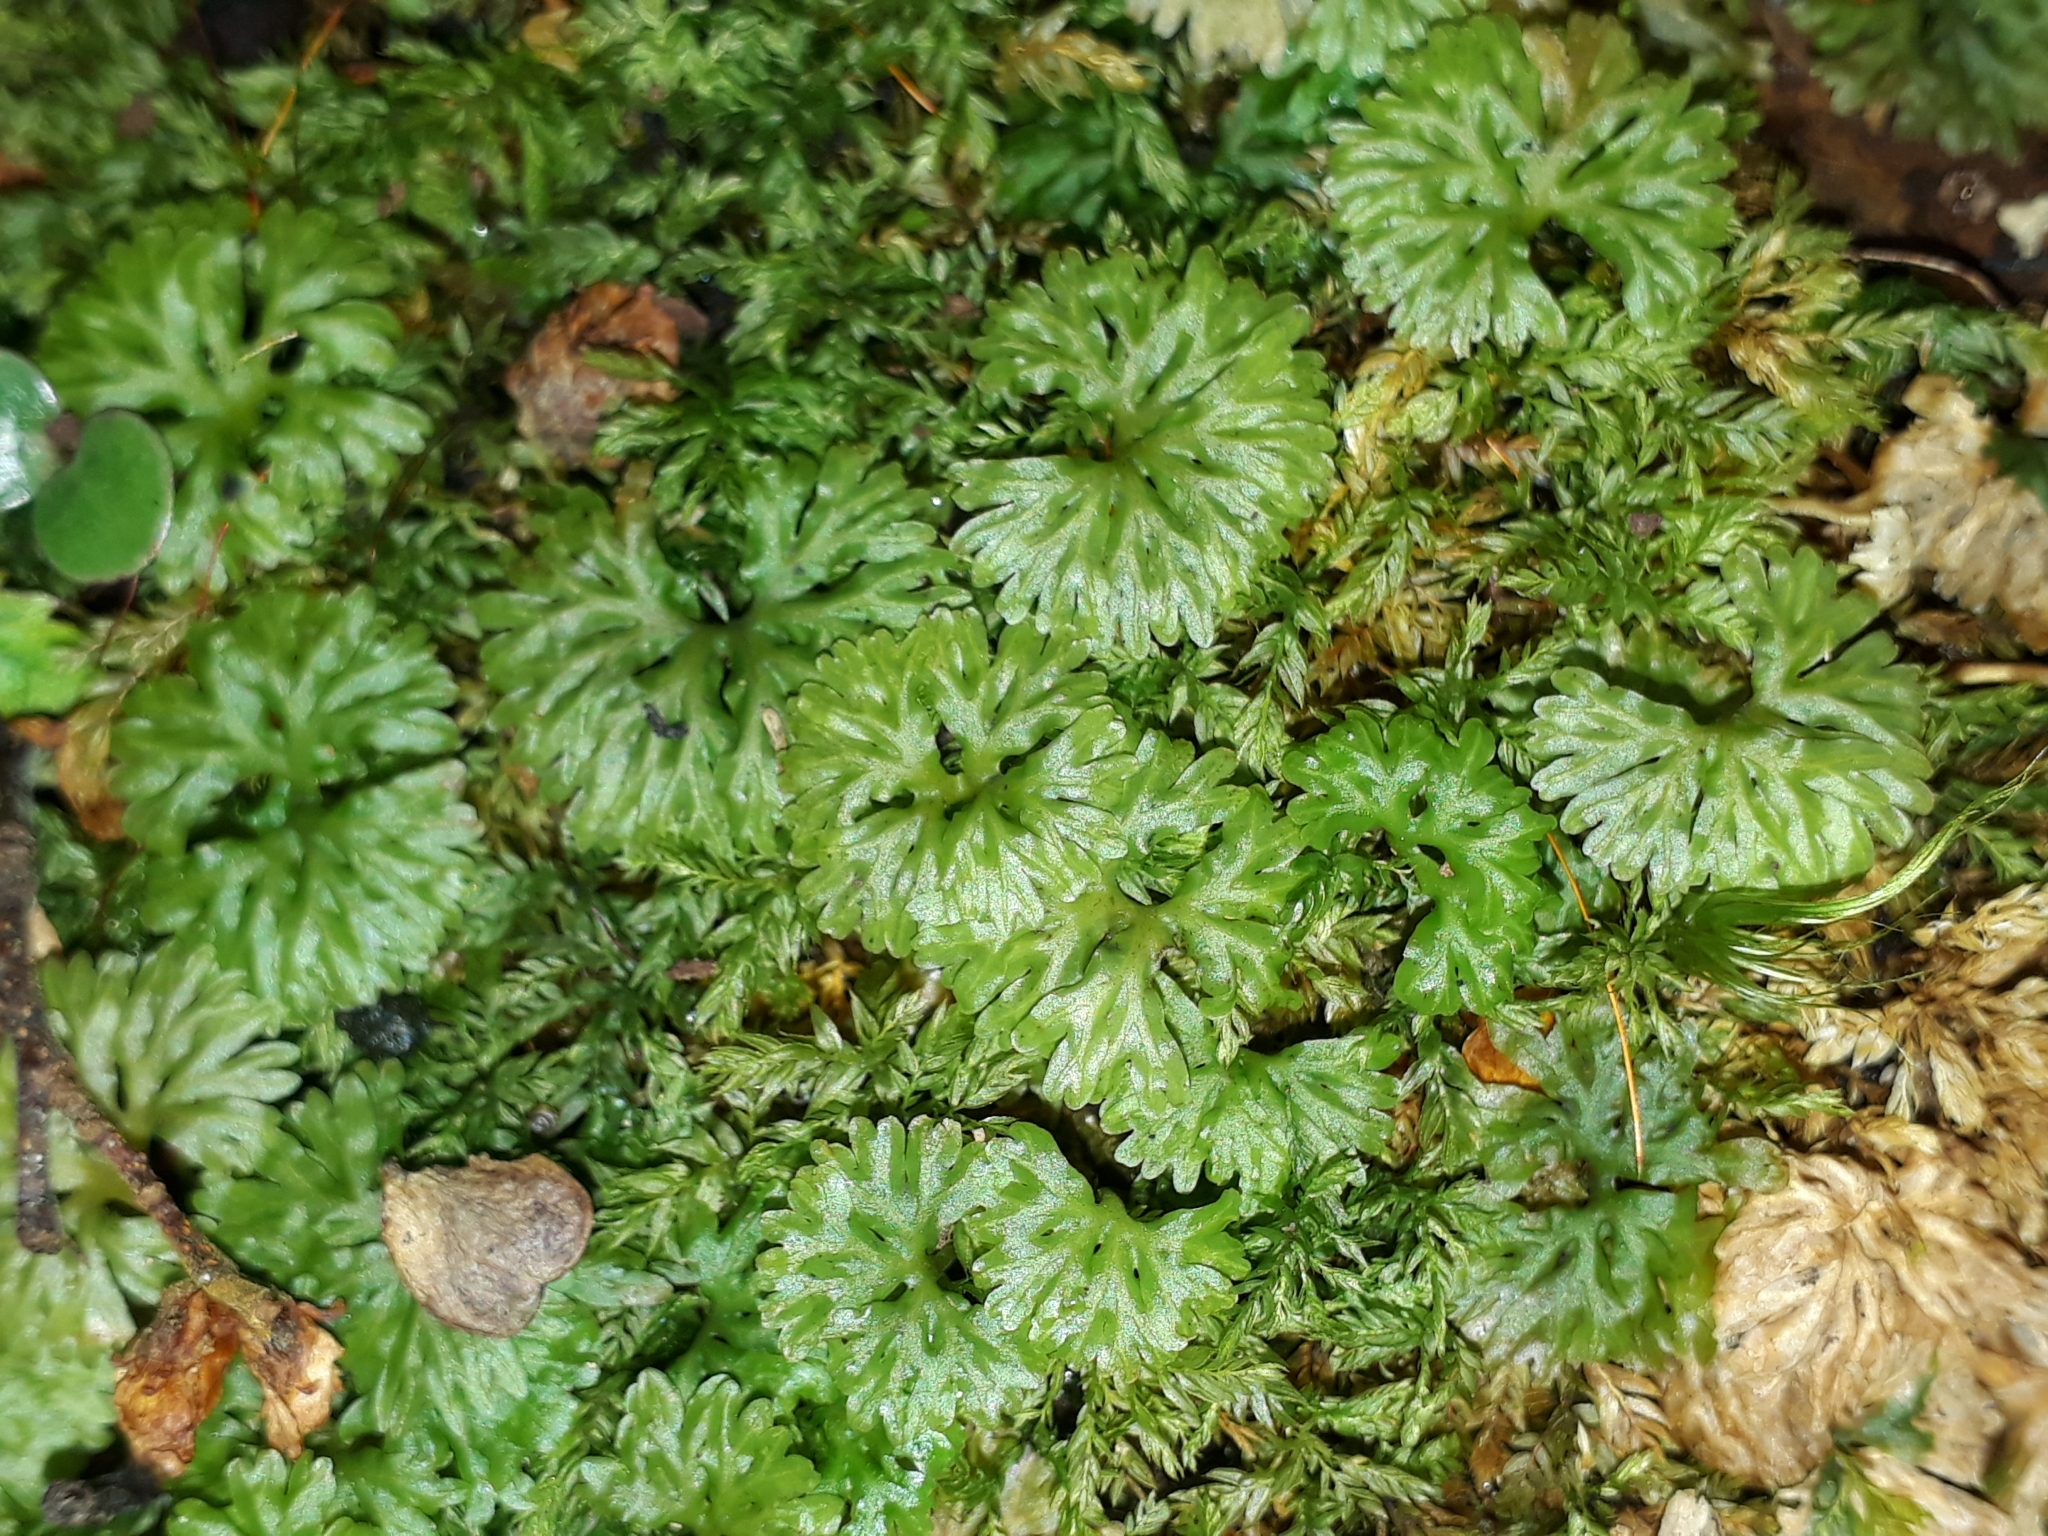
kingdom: Plantae
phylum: Marchantiophyta
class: Jungermanniopsida
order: Pallaviciniales
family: Hymenophytaceae
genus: Hymenophyton
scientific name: Hymenophyton flabellatum
